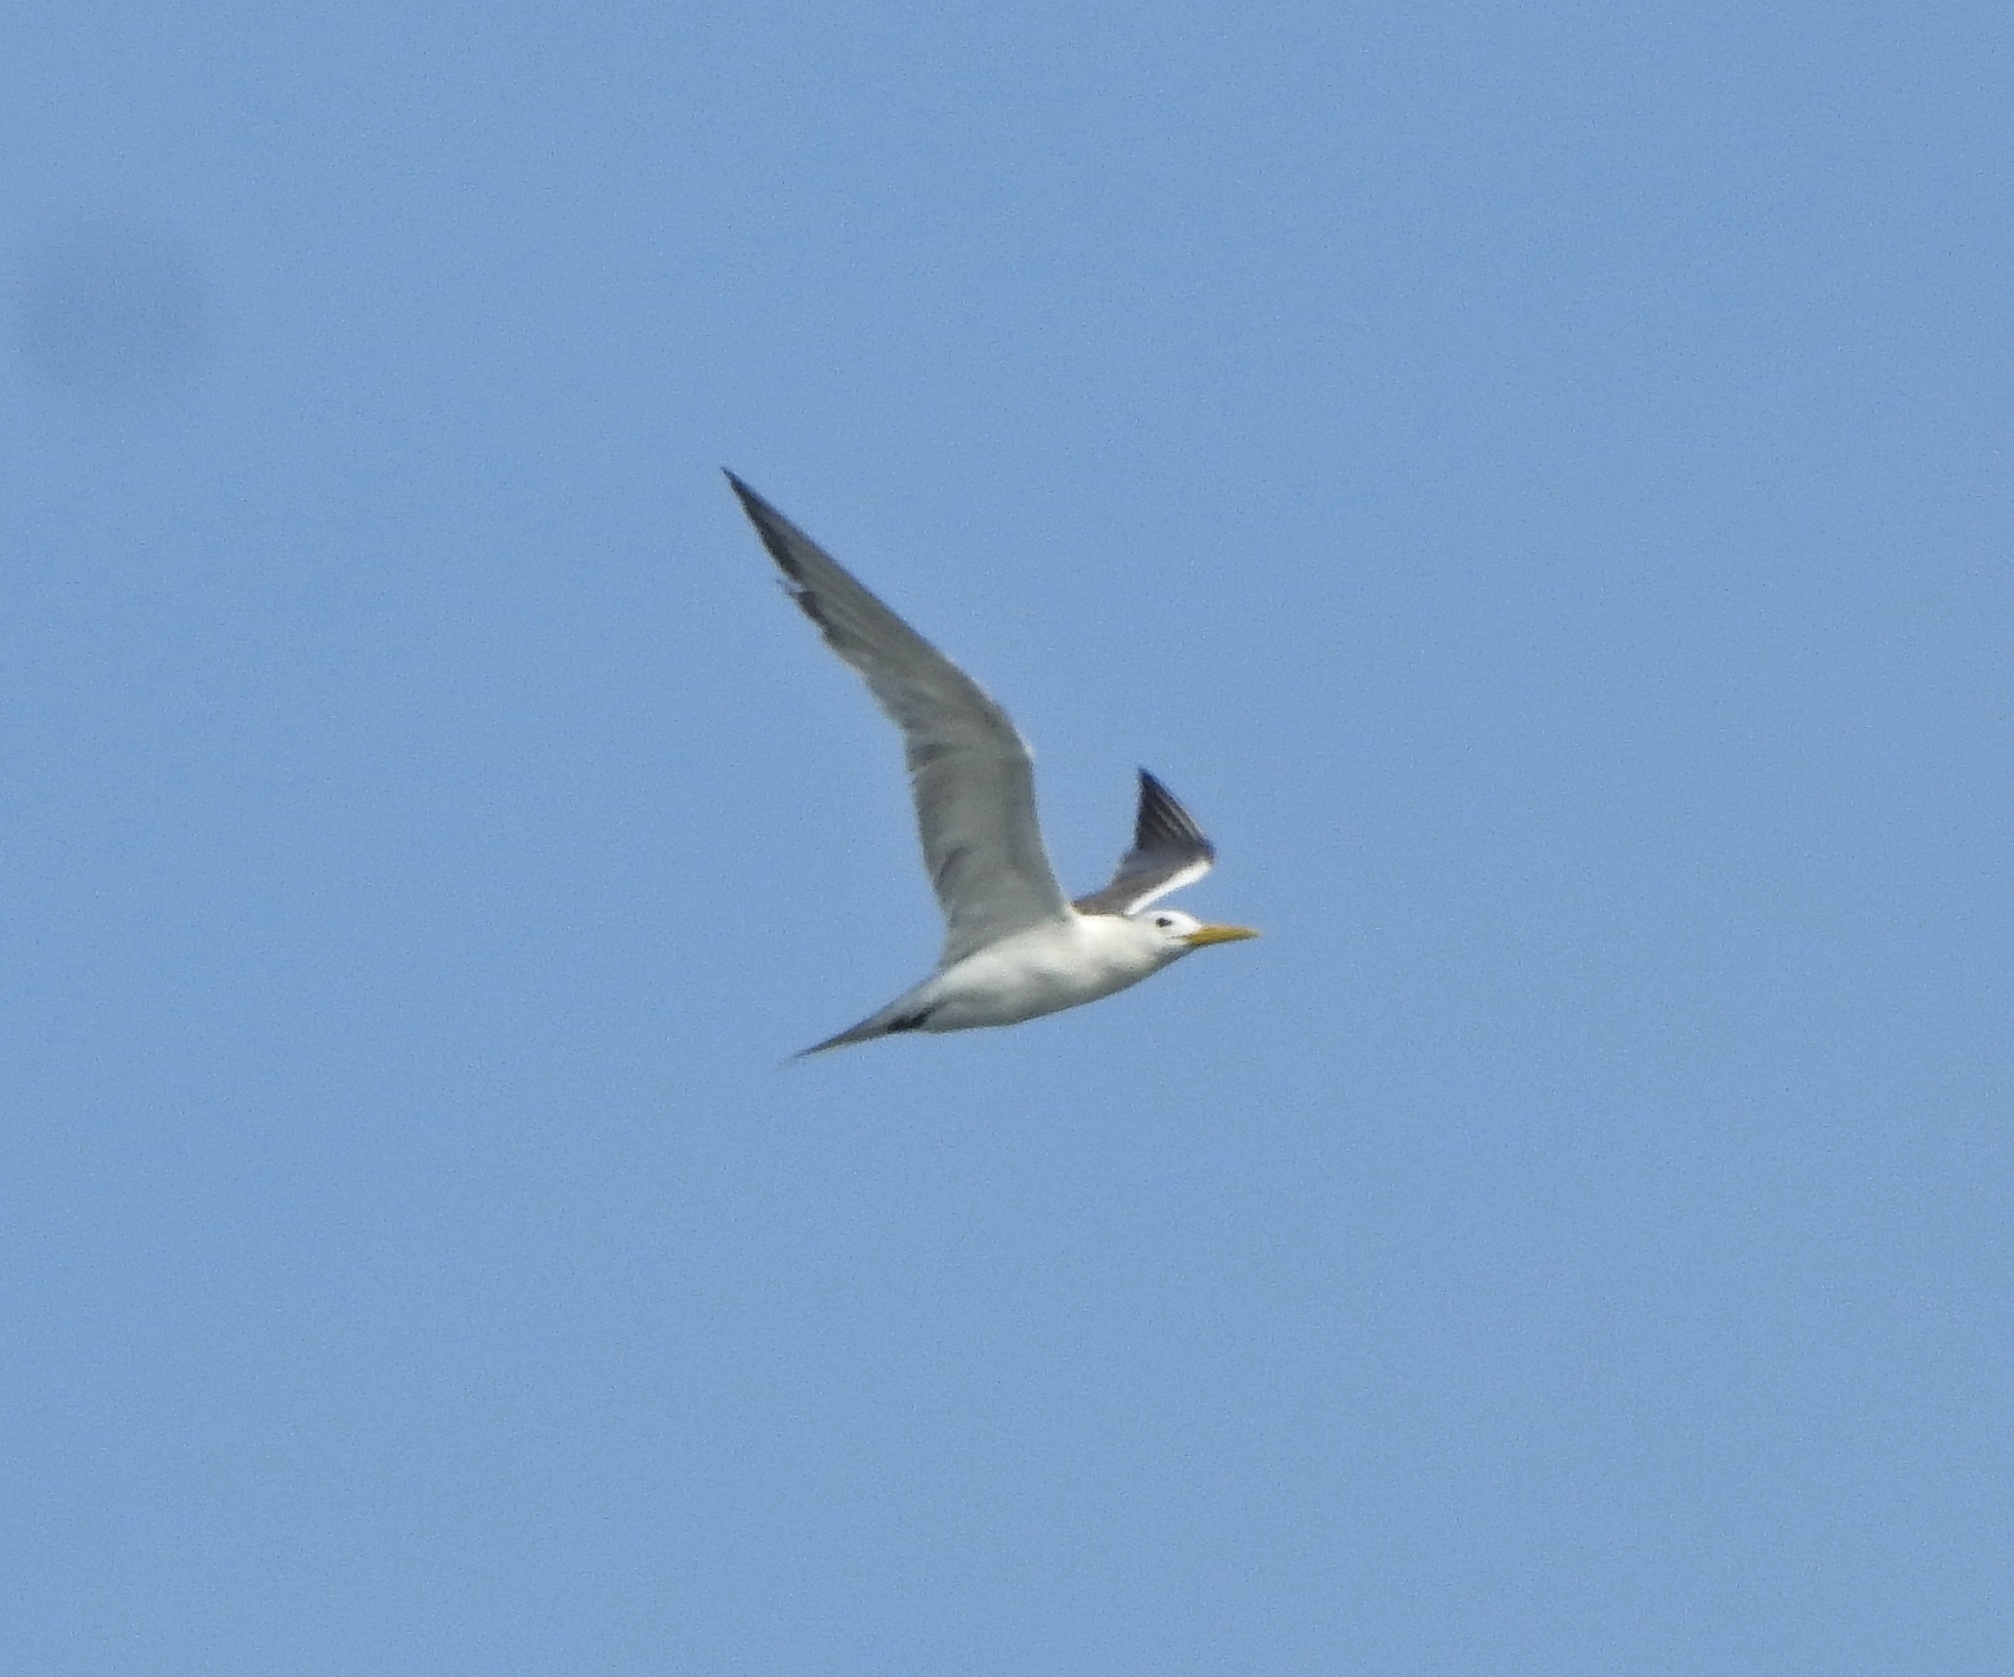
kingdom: Animalia
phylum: Chordata
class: Aves
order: Charadriiformes
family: Laridae
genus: Thalasseus
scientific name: Thalasseus bergii
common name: Greater crested tern
